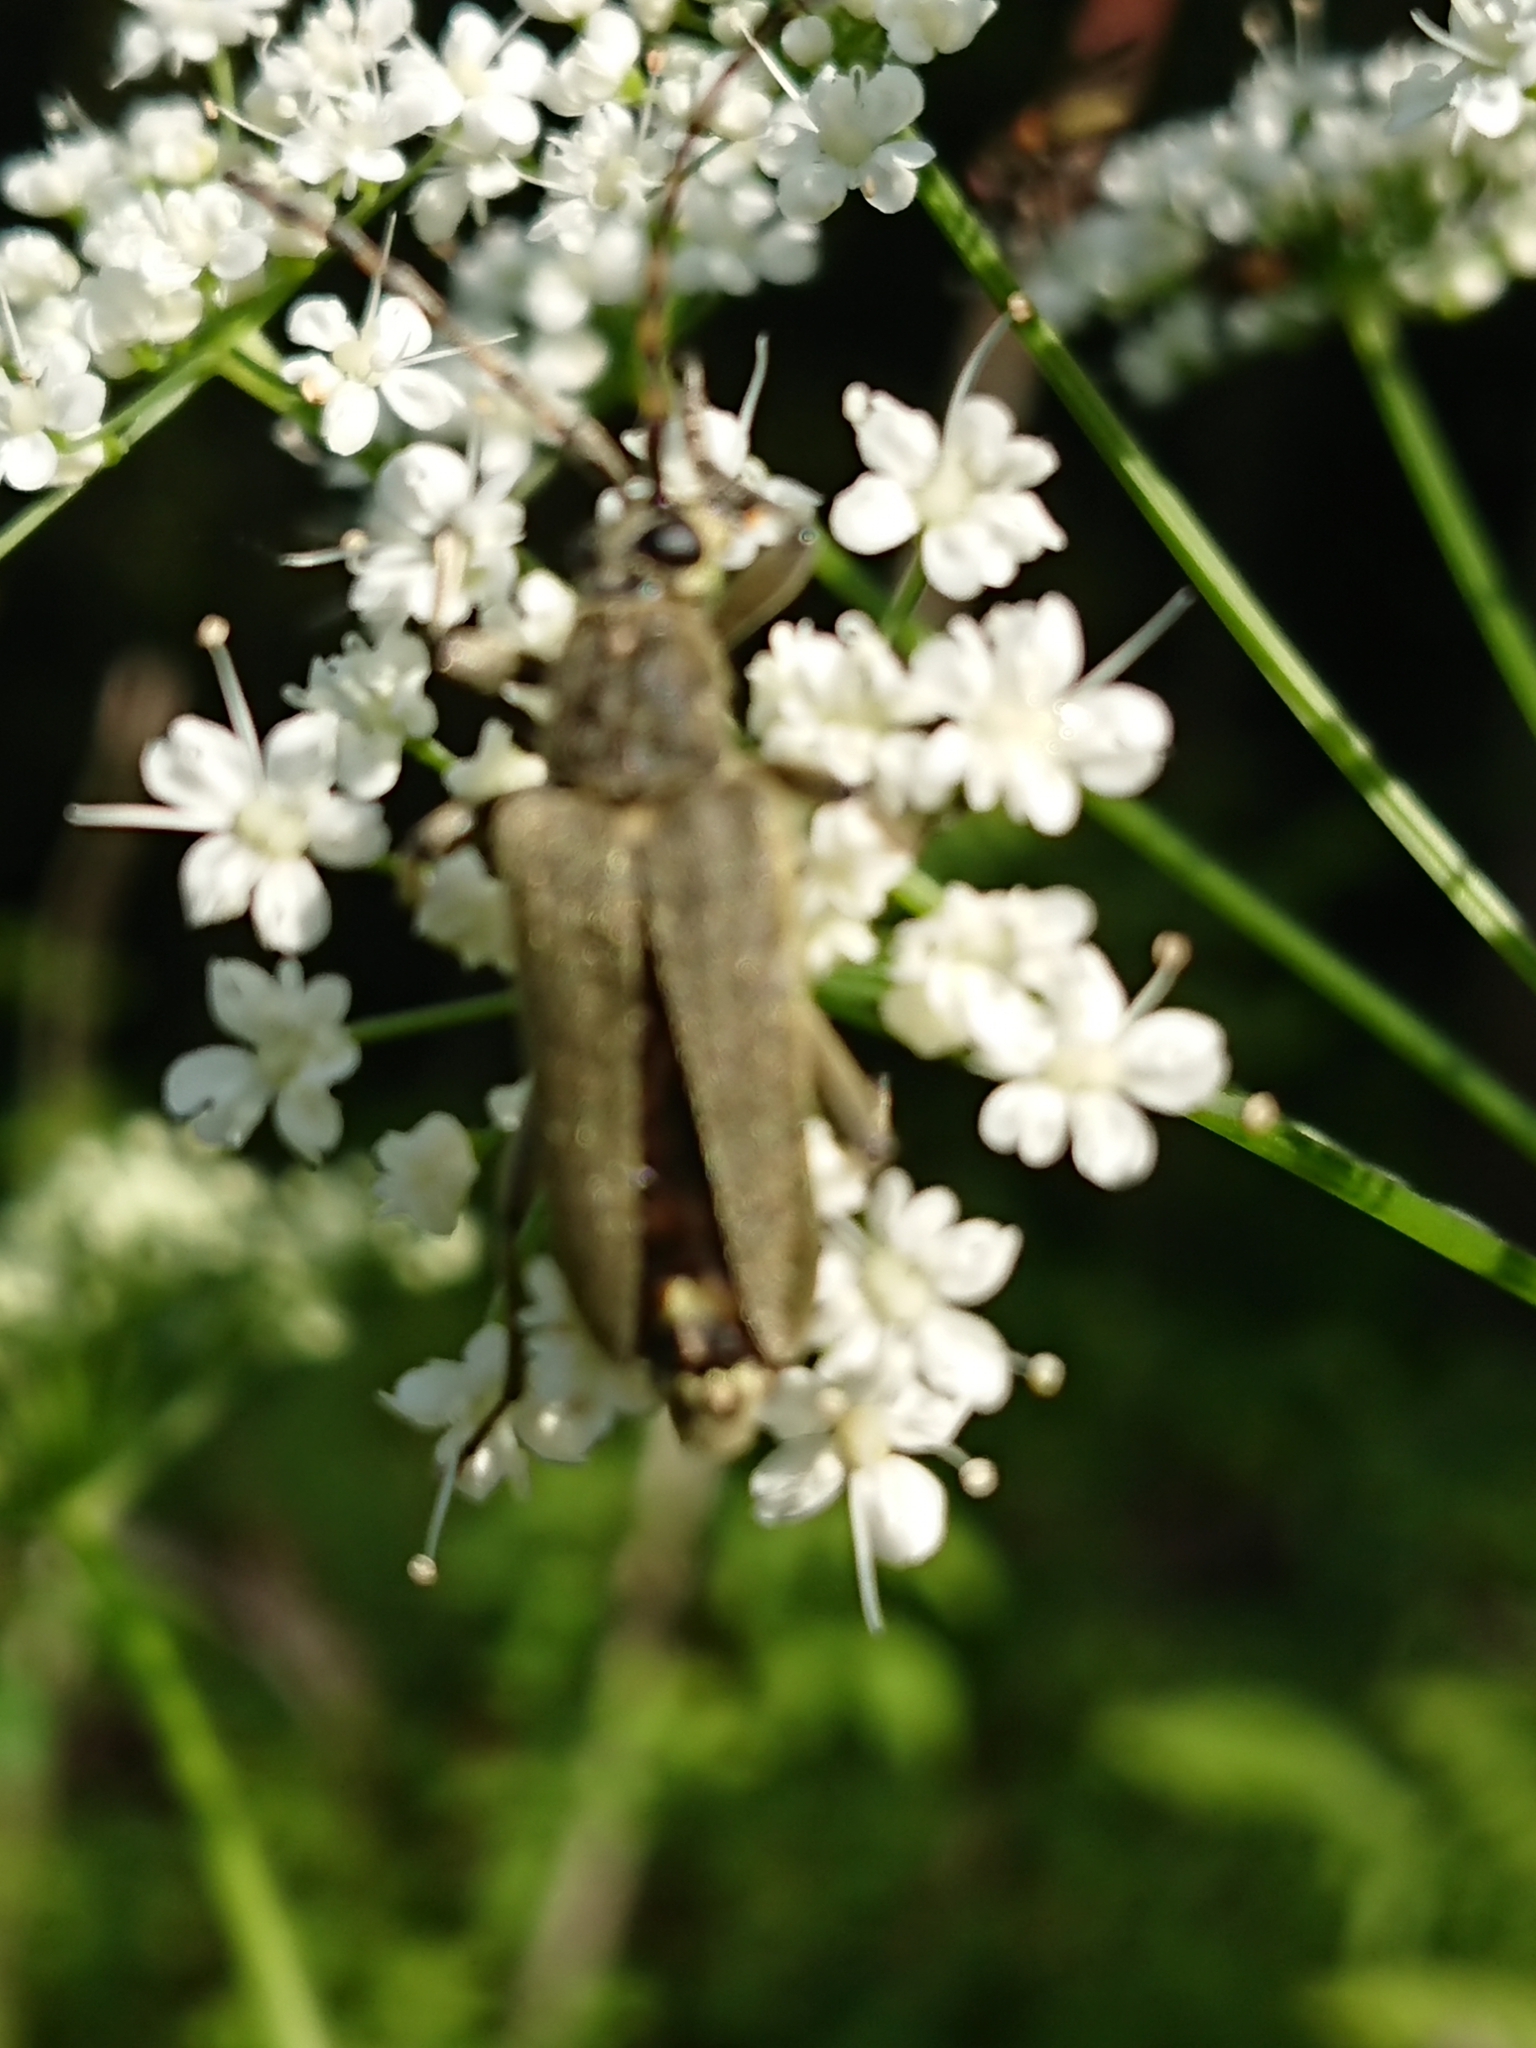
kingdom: Animalia
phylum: Arthropoda
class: Insecta
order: Coleoptera
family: Cerambycidae
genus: Lepturobosca
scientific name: Lepturobosca virens
